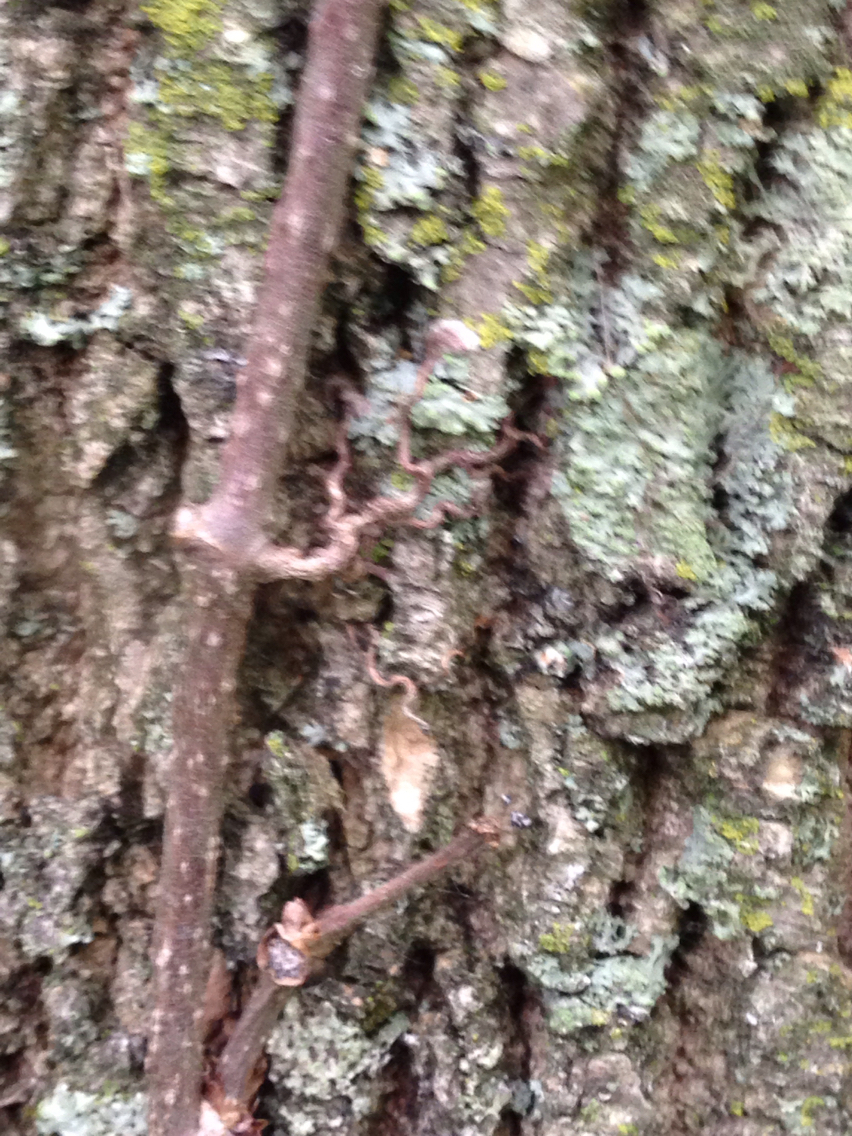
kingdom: Plantae
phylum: Tracheophyta
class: Magnoliopsida
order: Vitales
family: Vitaceae
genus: Parthenocissus
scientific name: Parthenocissus quinquefolia
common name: Virginia-creeper
